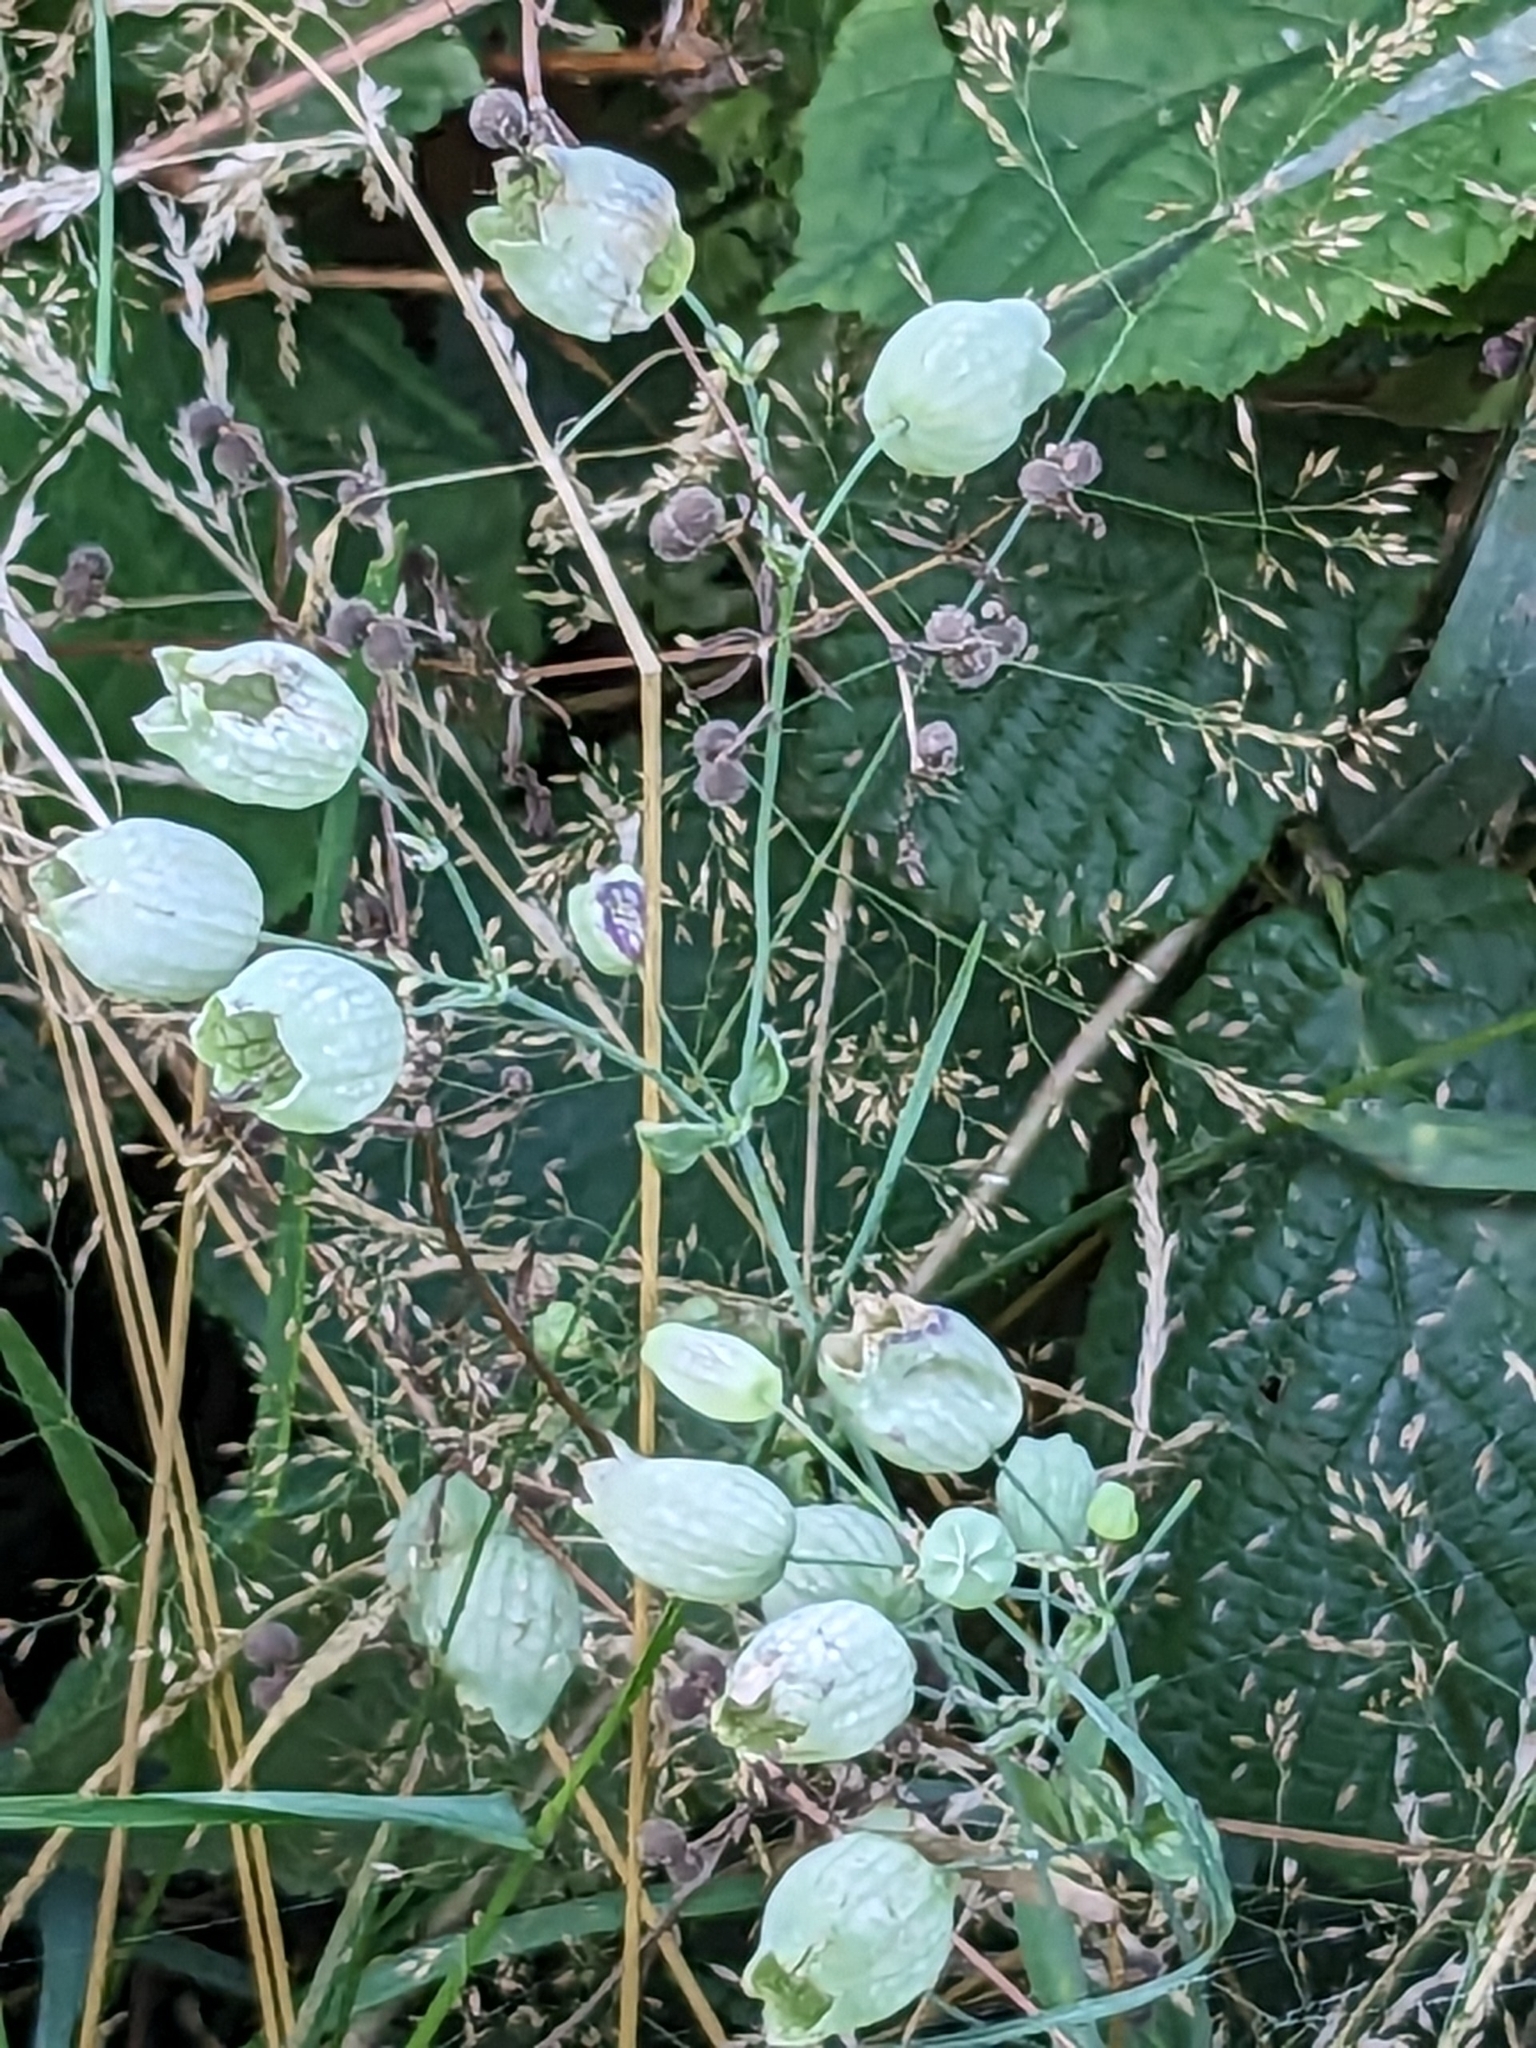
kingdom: Plantae
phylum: Tracheophyta
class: Magnoliopsida
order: Caryophyllales
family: Caryophyllaceae
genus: Silene
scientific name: Silene vulgaris
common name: Bladder campion
